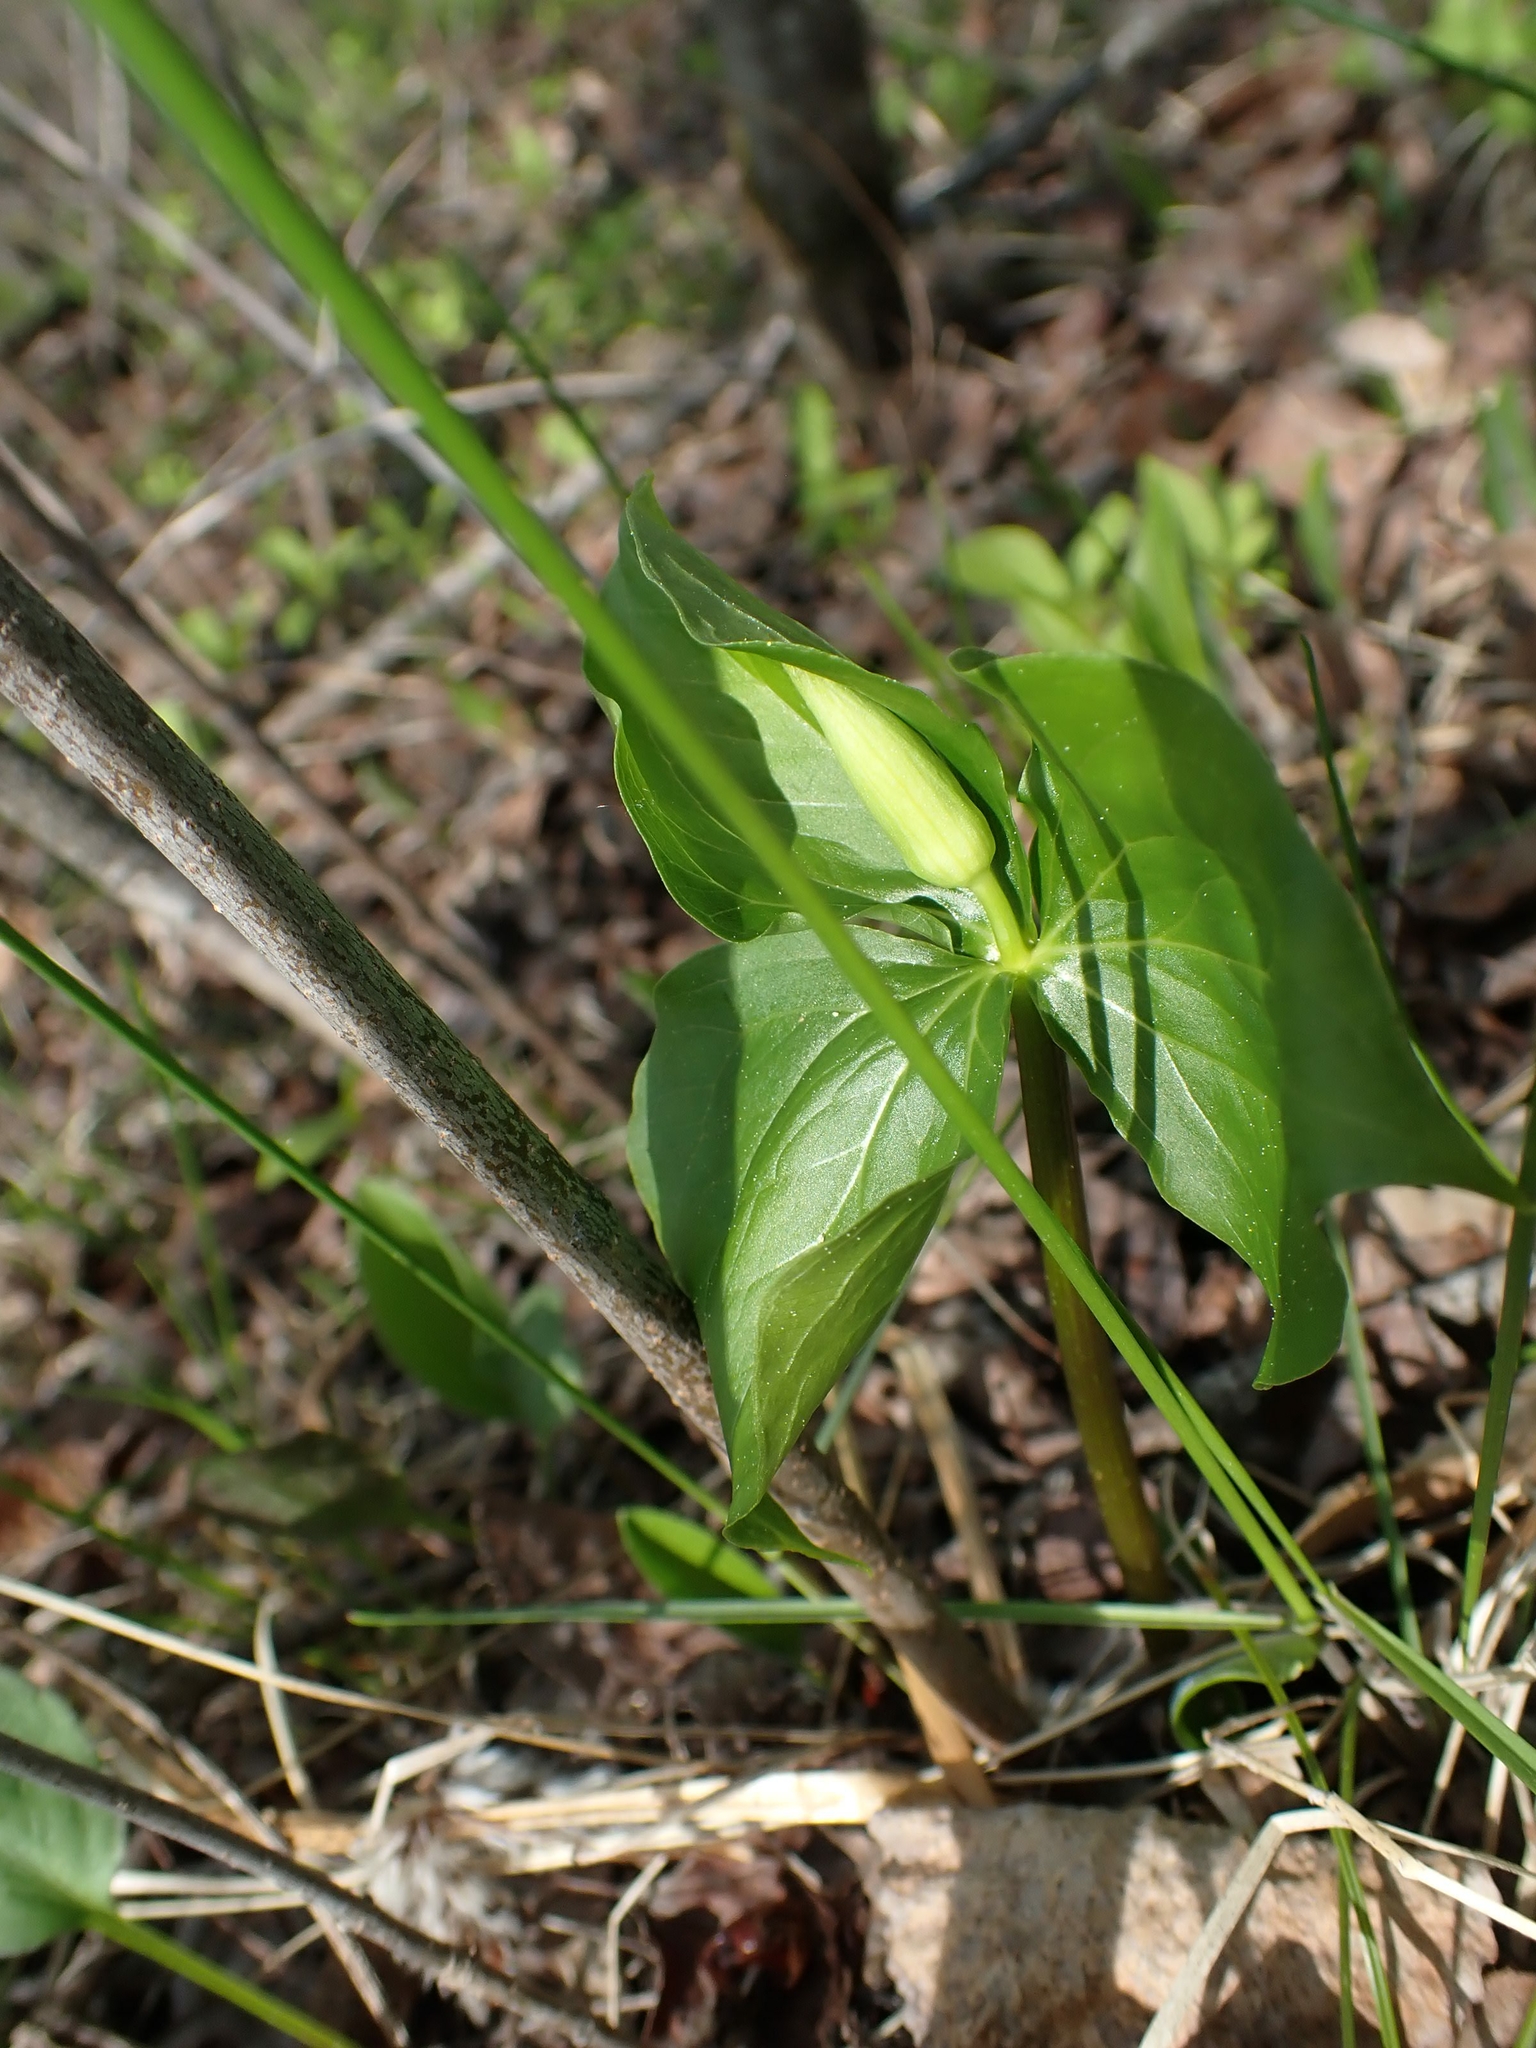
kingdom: Plantae
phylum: Tracheophyta
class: Liliopsida
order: Liliales
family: Melanthiaceae
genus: Trillium
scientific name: Trillium cernuum
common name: Nodding trillium
